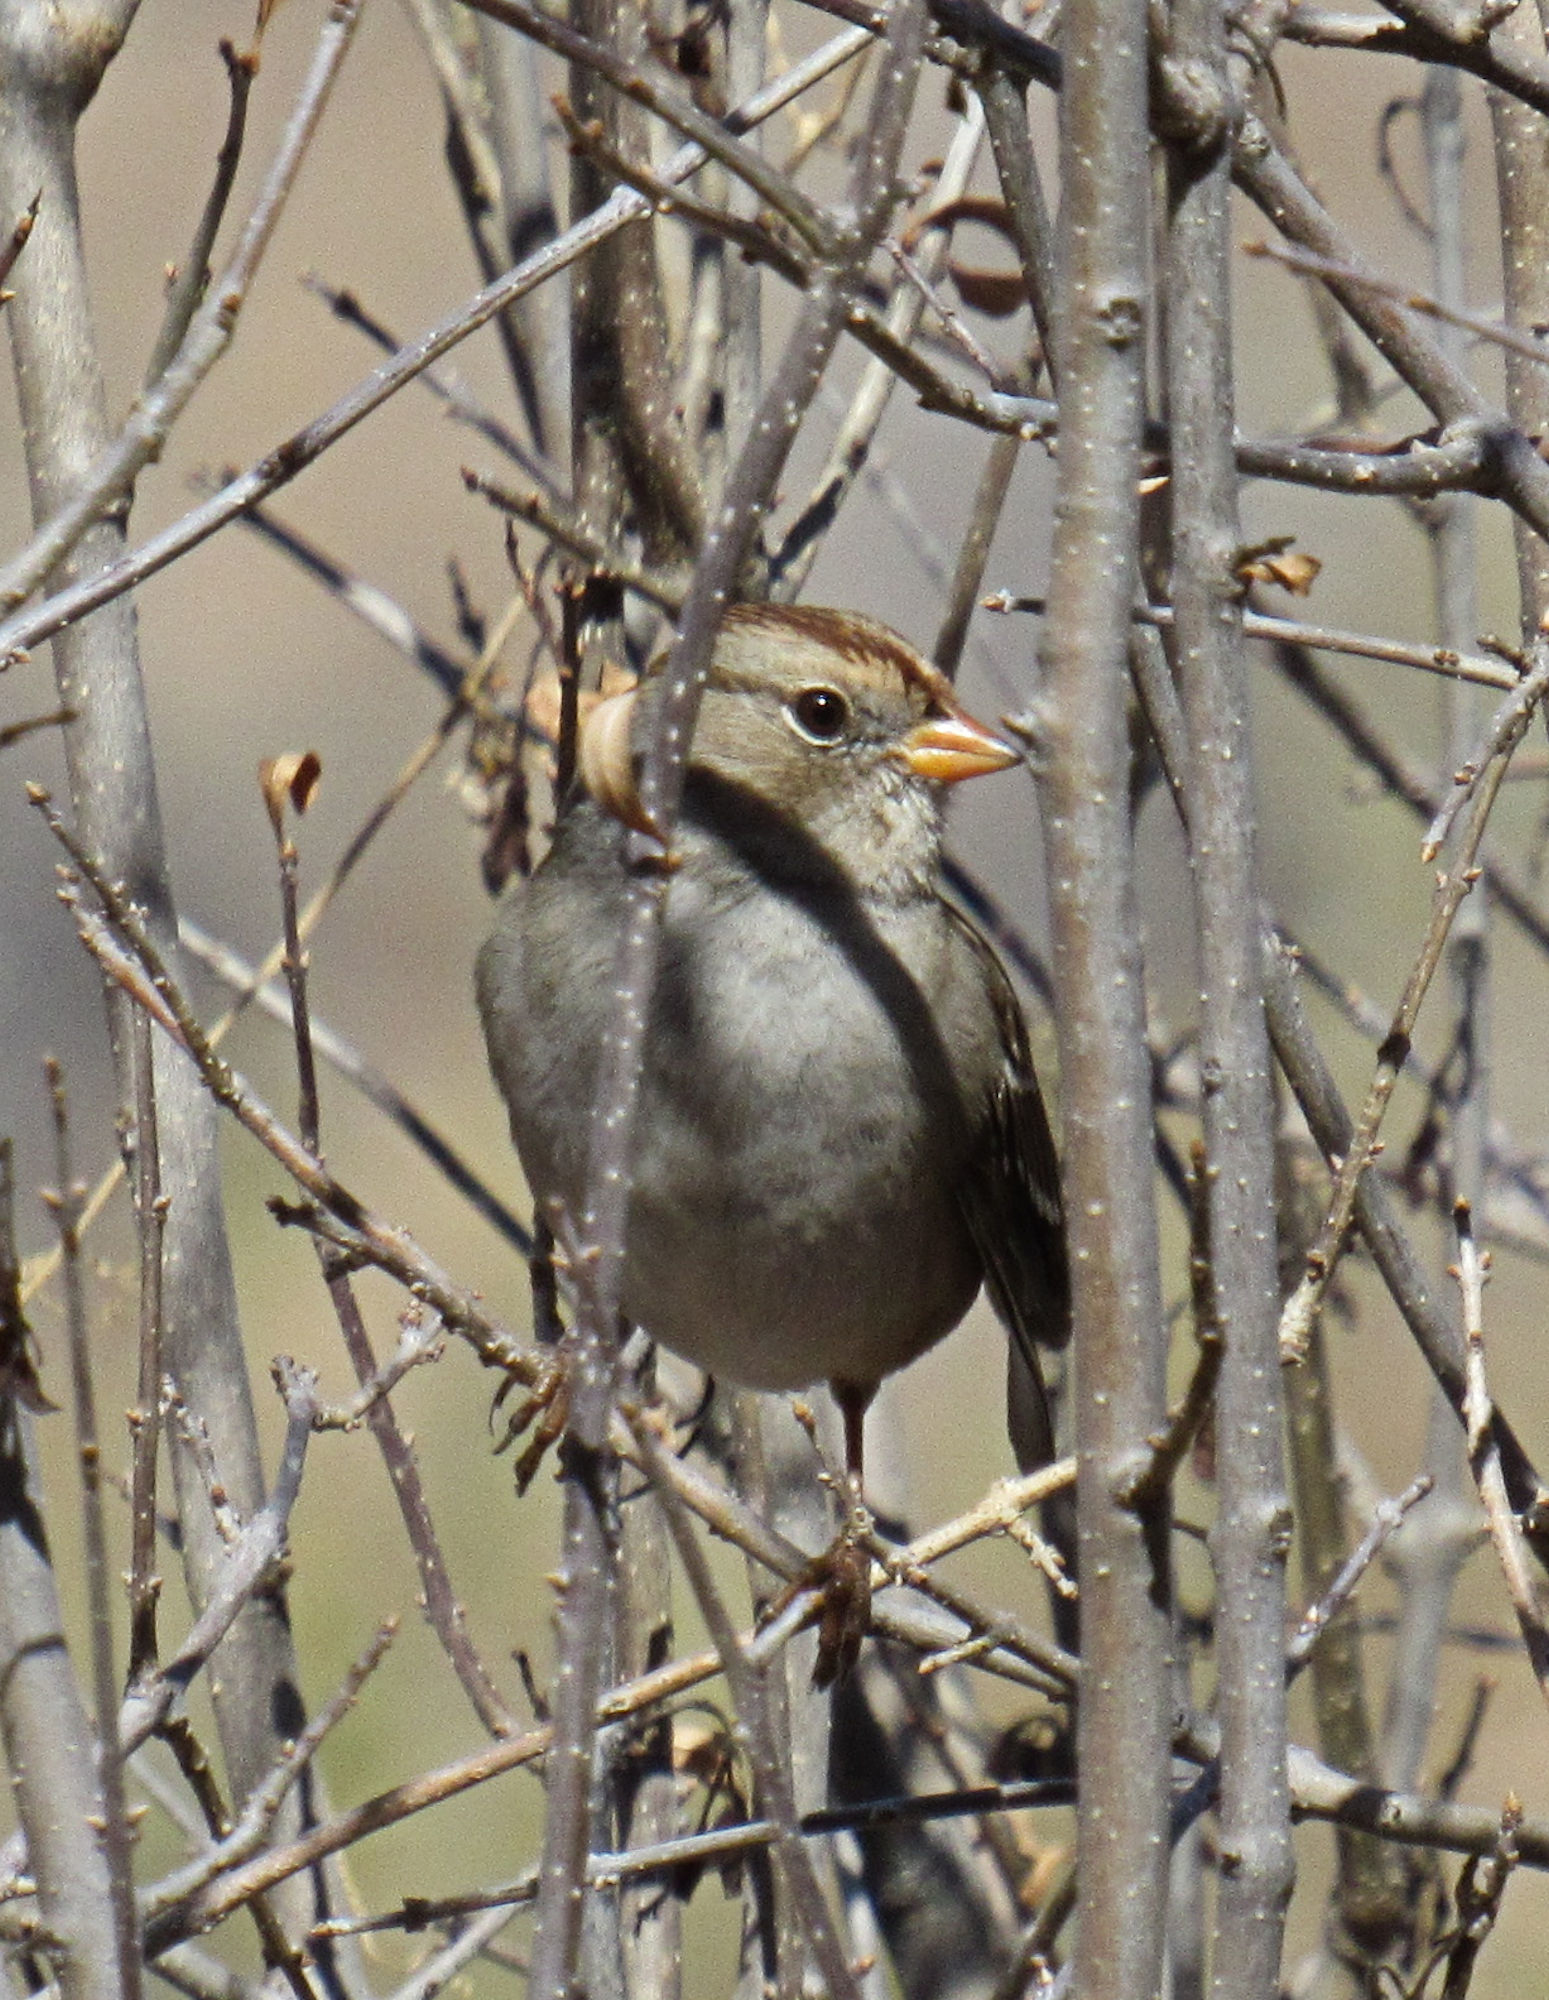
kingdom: Animalia
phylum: Chordata
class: Aves
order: Passeriformes
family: Passerellidae
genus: Zonotrichia
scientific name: Zonotrichia leucophrys
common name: White-crowned sparrow
